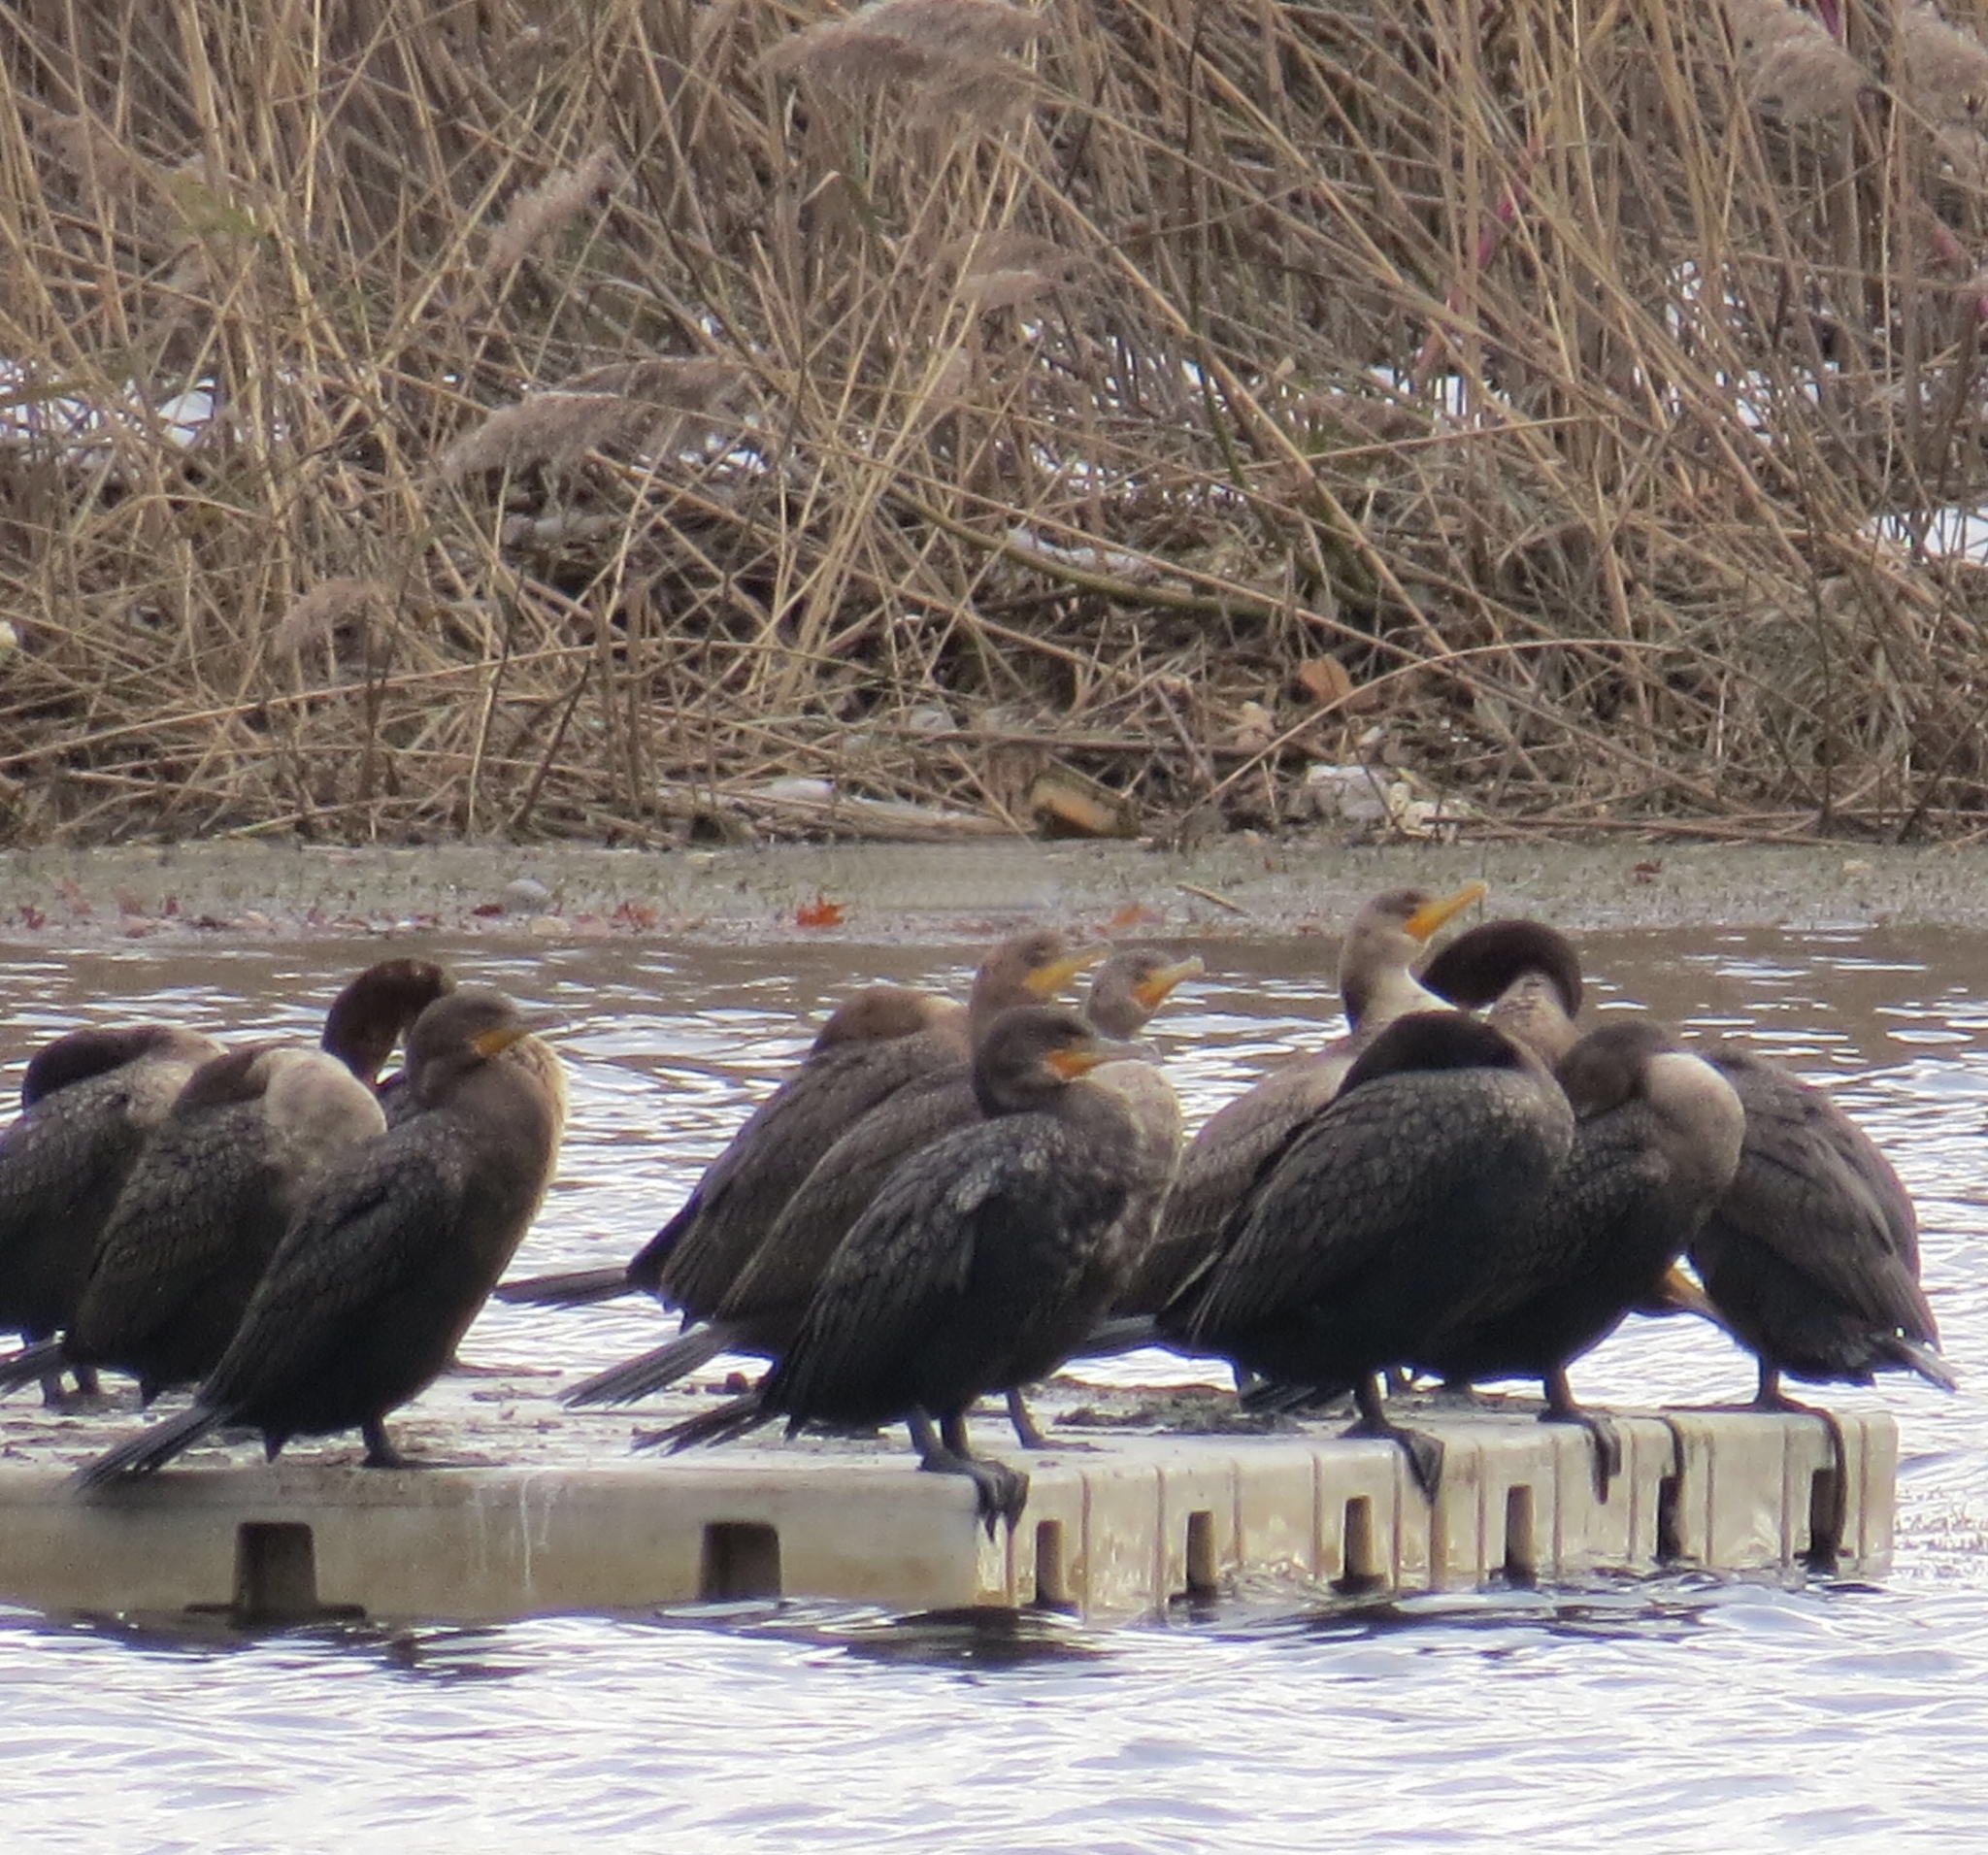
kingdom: Animalia
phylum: Chordata
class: Aves
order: Suliformes
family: Phalacrocoracidae
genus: Phalacrocorax
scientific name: Phalacrocorax auritus
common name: Double-crested cormorant
